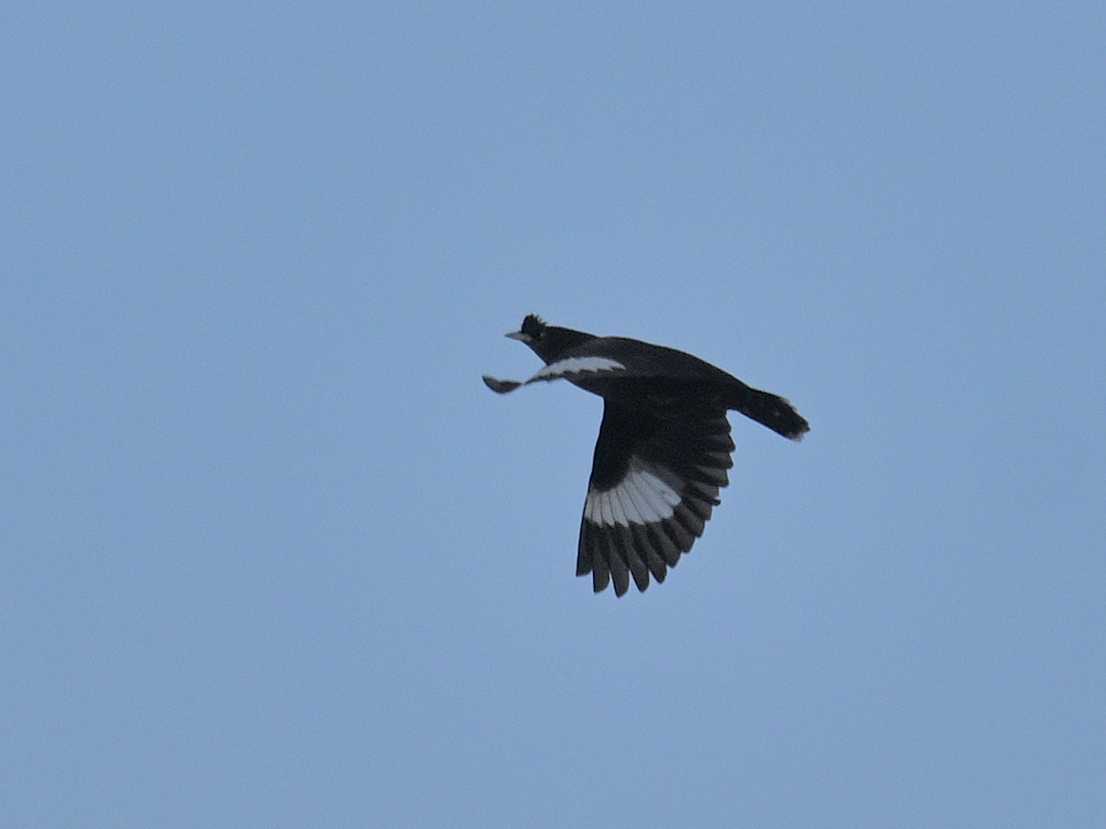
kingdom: Animalia
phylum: Chordata
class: Aves
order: Passeriformes
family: Sturnidae
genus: Acridotheres
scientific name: Acridotheres cristatellus
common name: Crested myna
